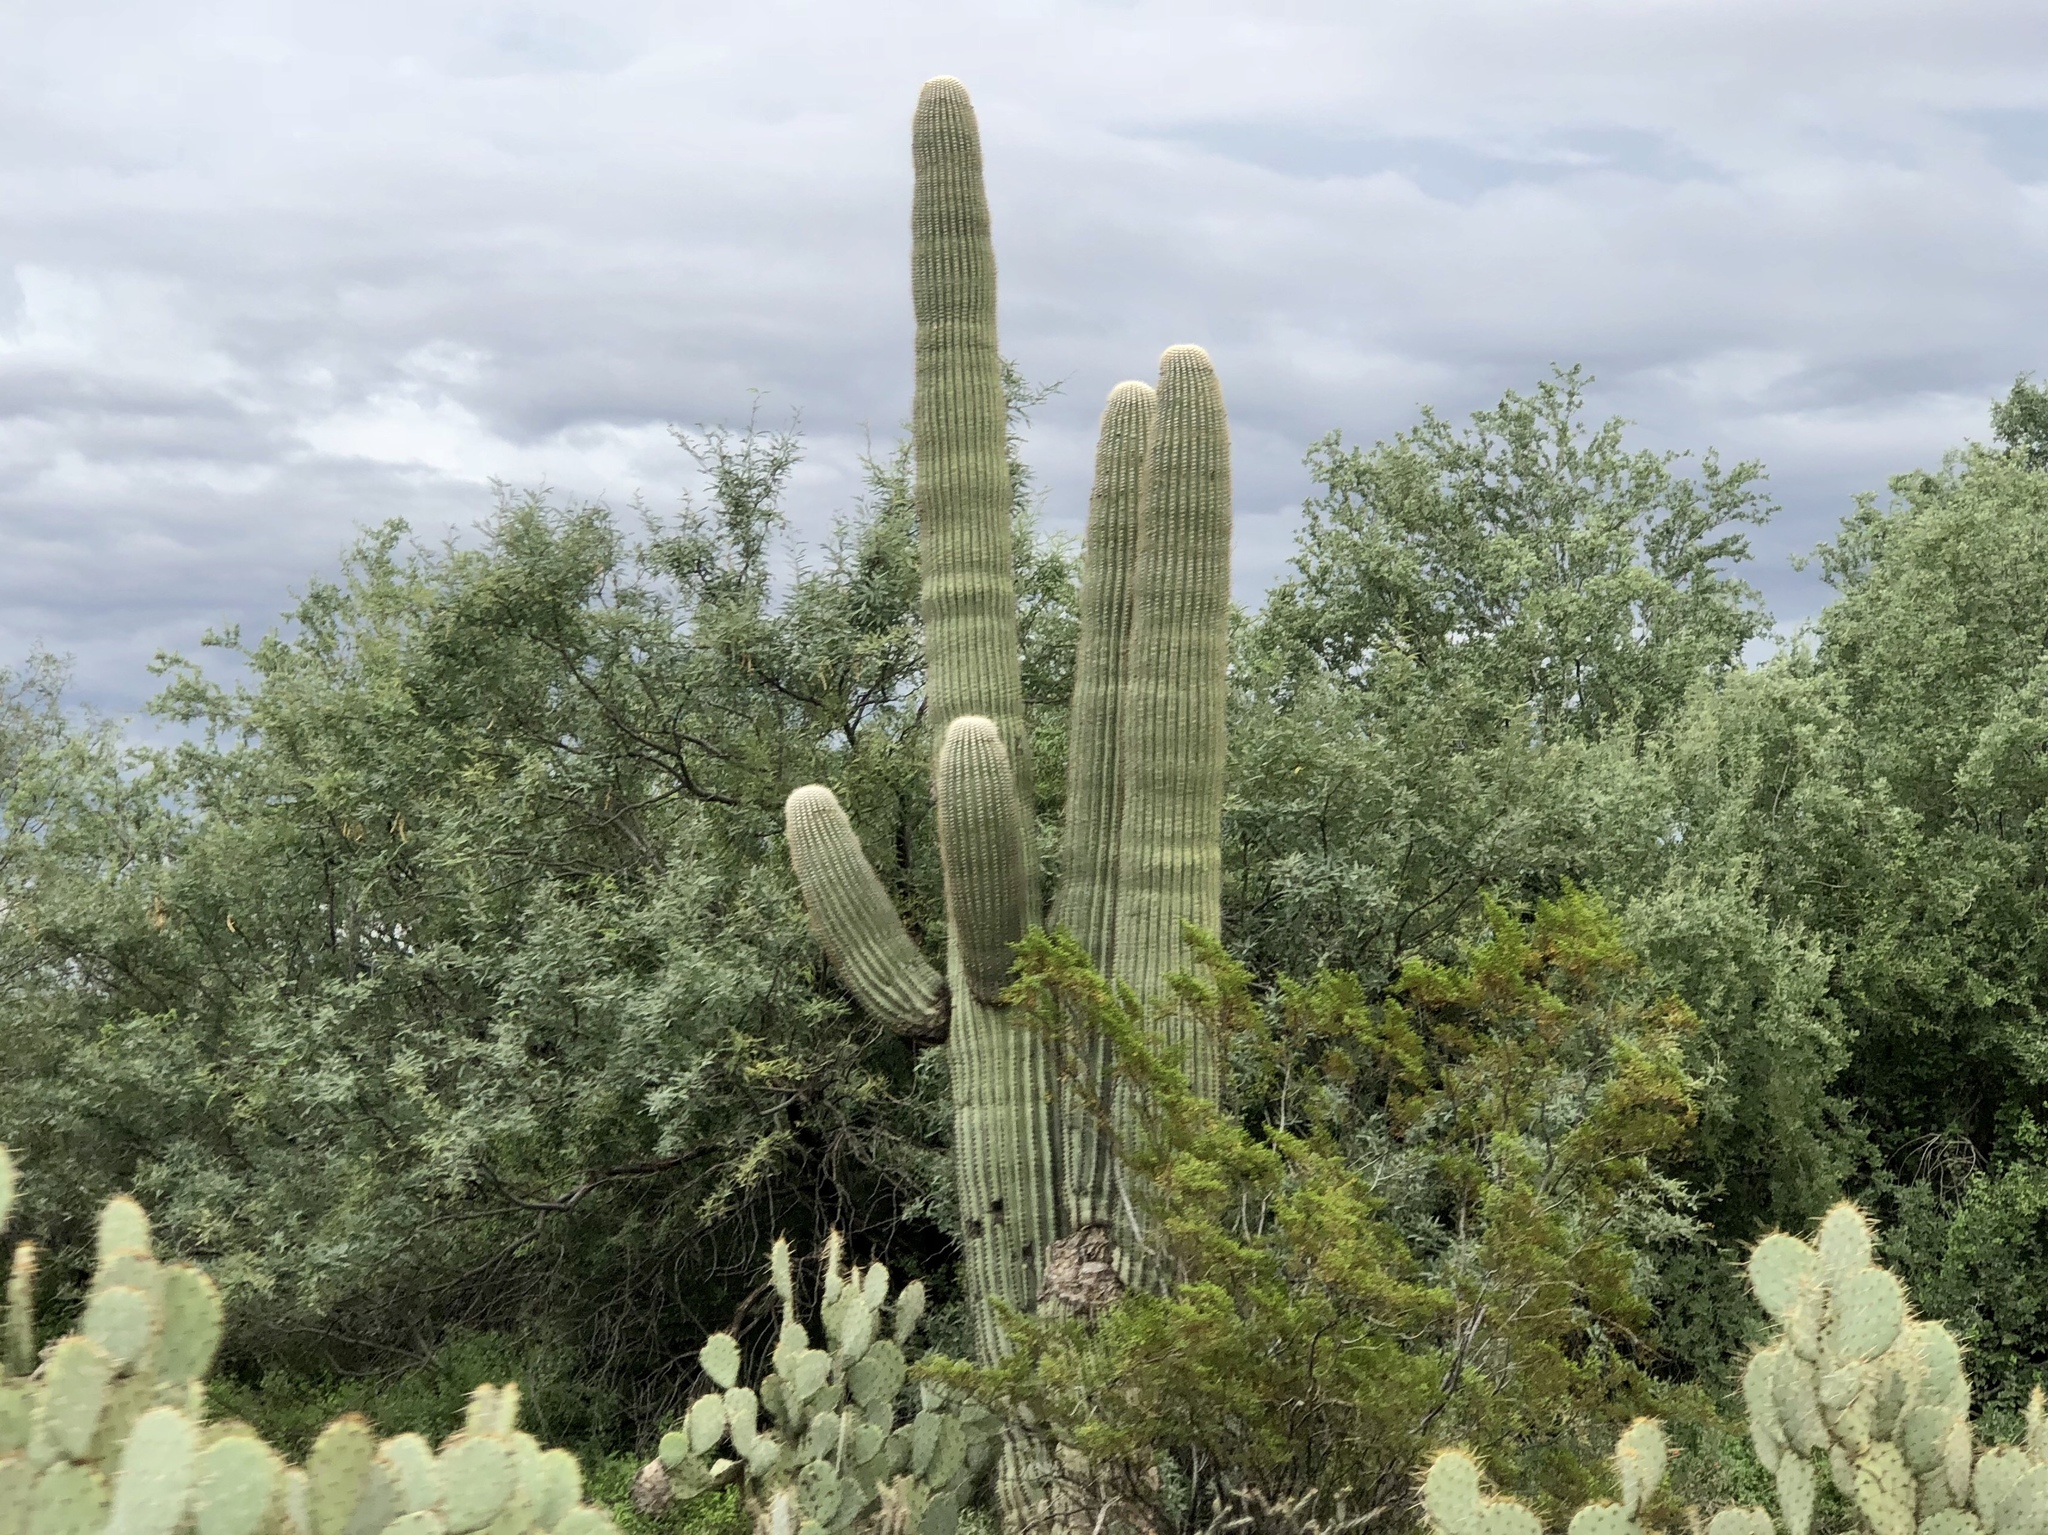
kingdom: Plantae
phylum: Tracheophyta
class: Magnoliopsida
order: Caryophyllales
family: Cactaceae
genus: Carnegiea
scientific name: Carnegiea gigantea
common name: Saguaro
